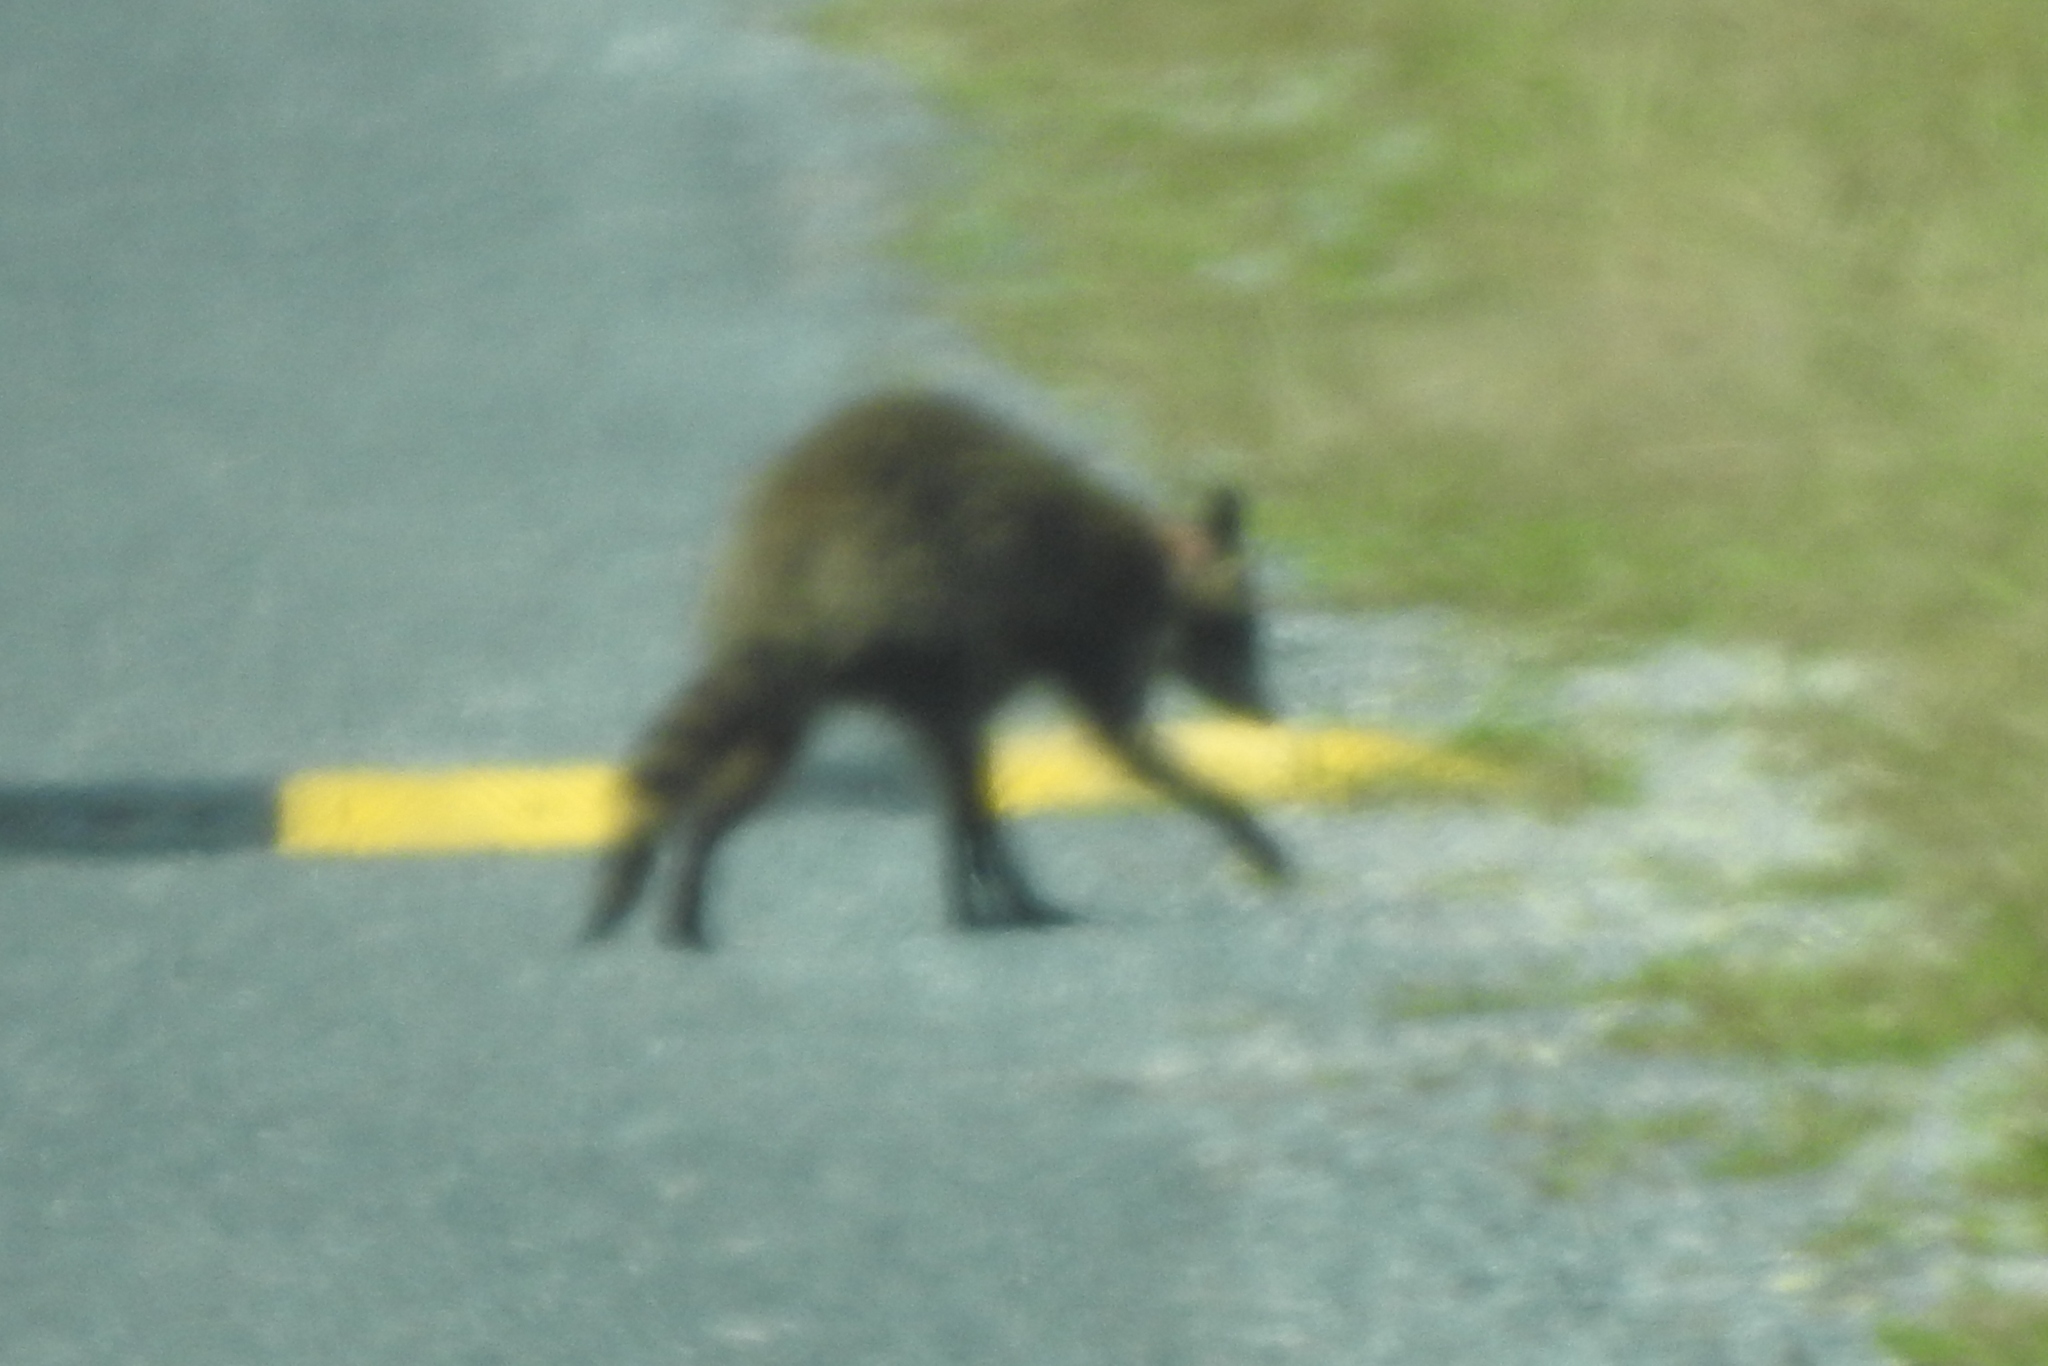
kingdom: Animalia
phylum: Chordata
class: Mammalia
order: Carnivora
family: Procyonidae
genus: Procyon
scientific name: Procyon lotor
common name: Raccoon
